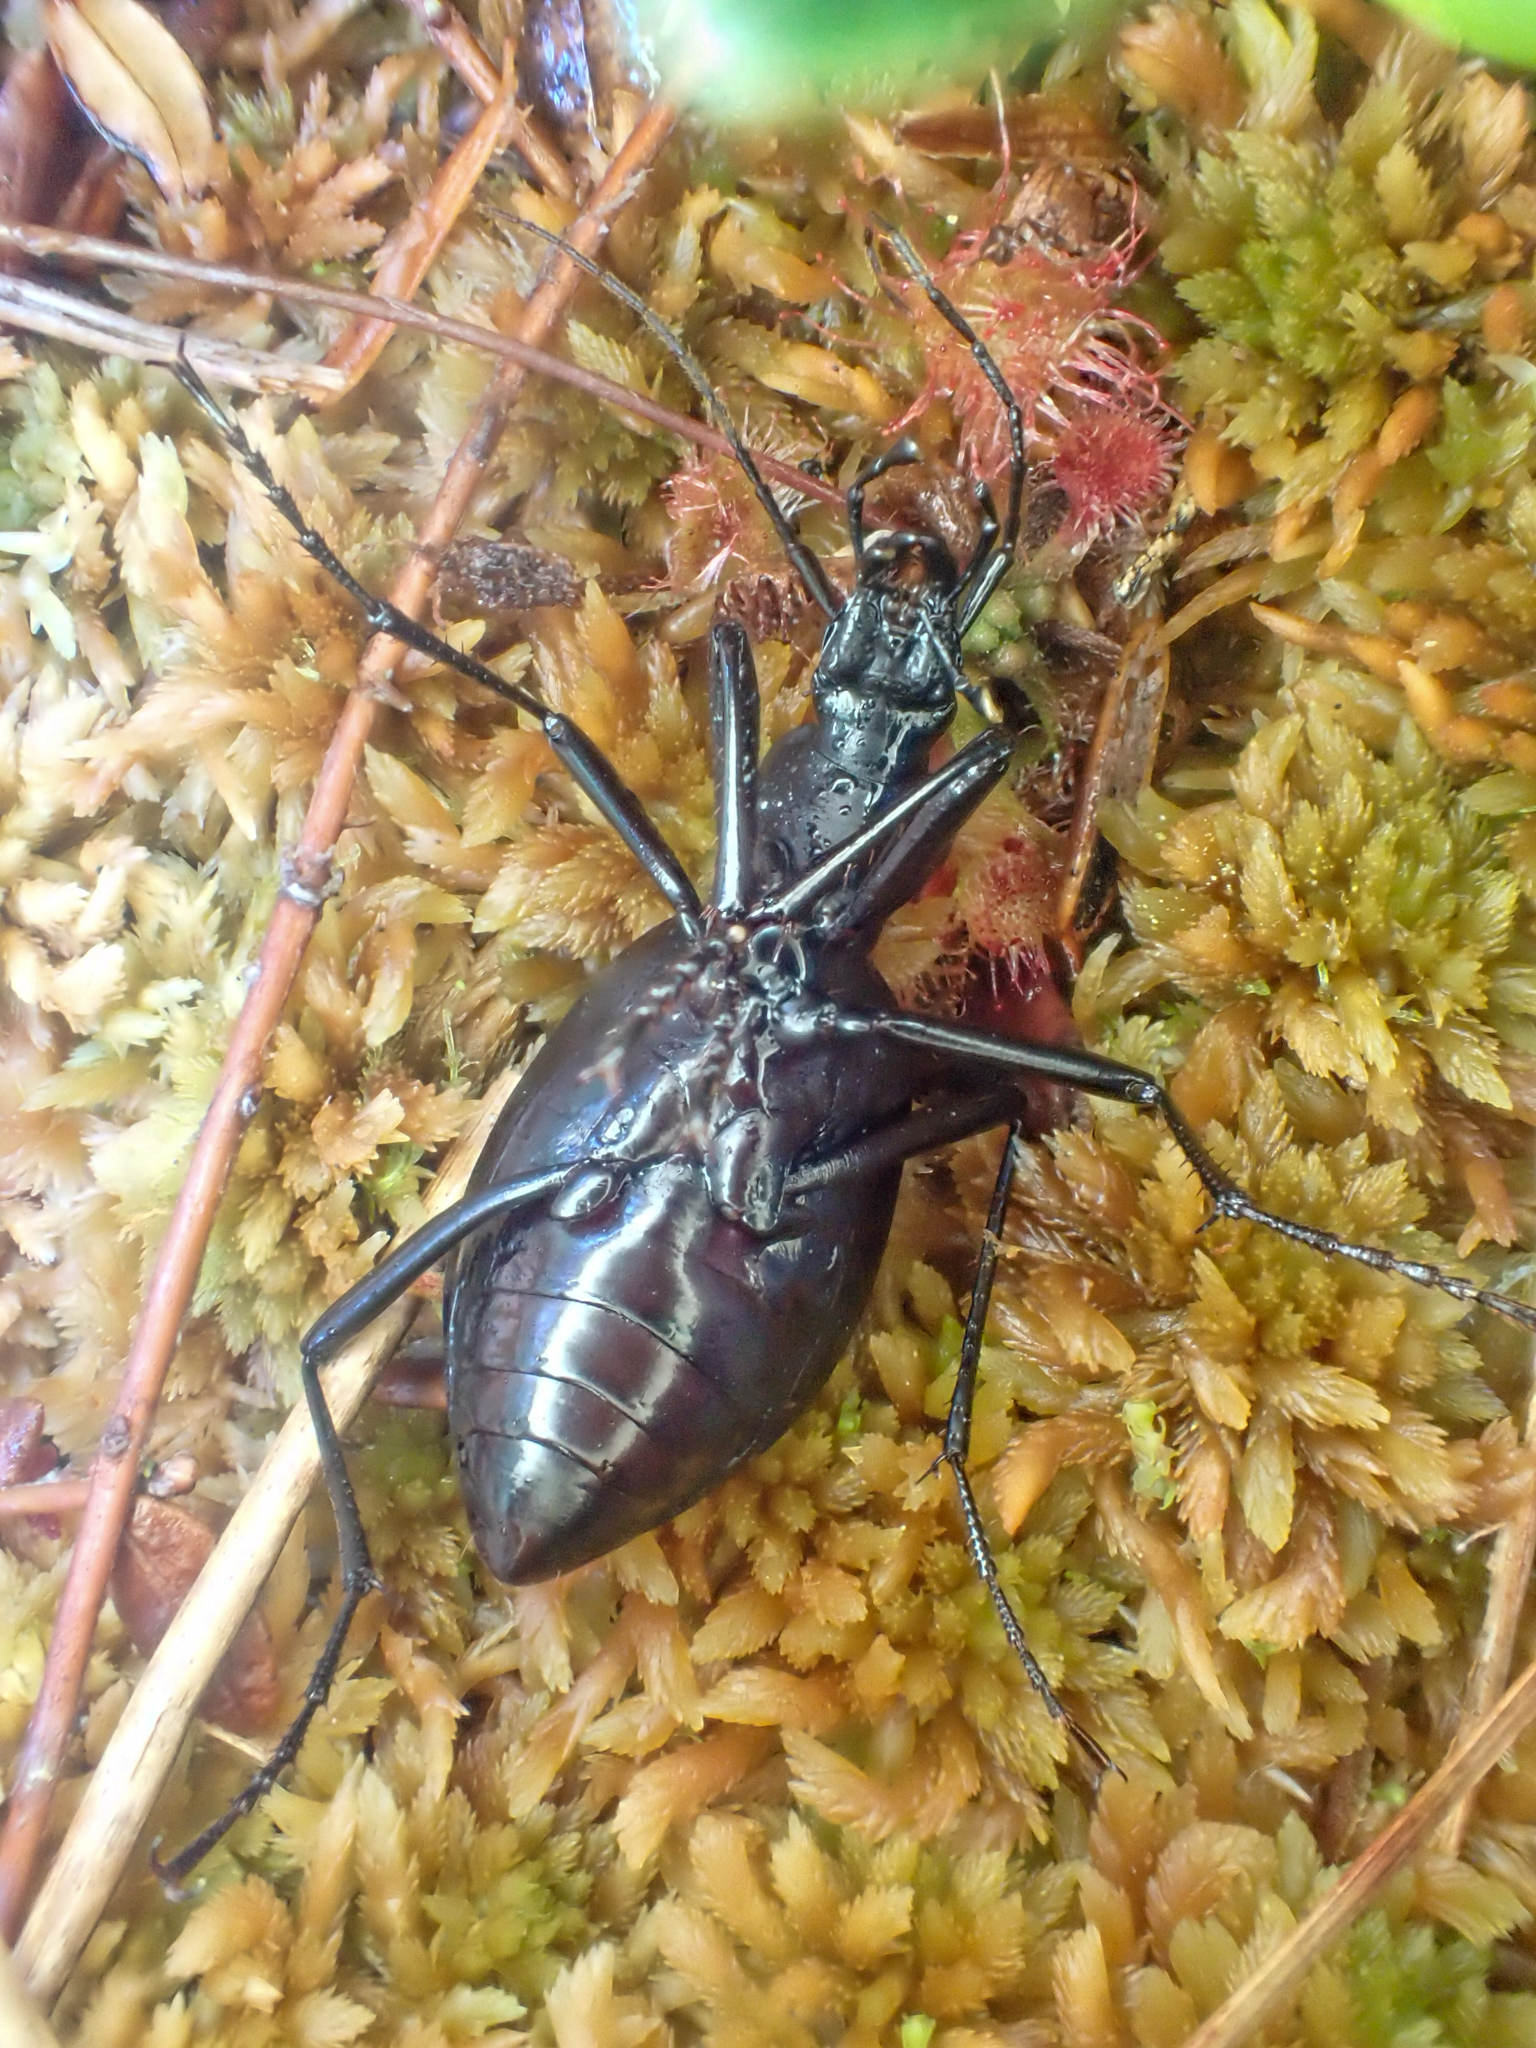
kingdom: Animalia
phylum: Arthropoda
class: Insecta
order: Coleoptera
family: Carabidae
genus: Scaphinotus
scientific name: Scaphinotus angusticollis
